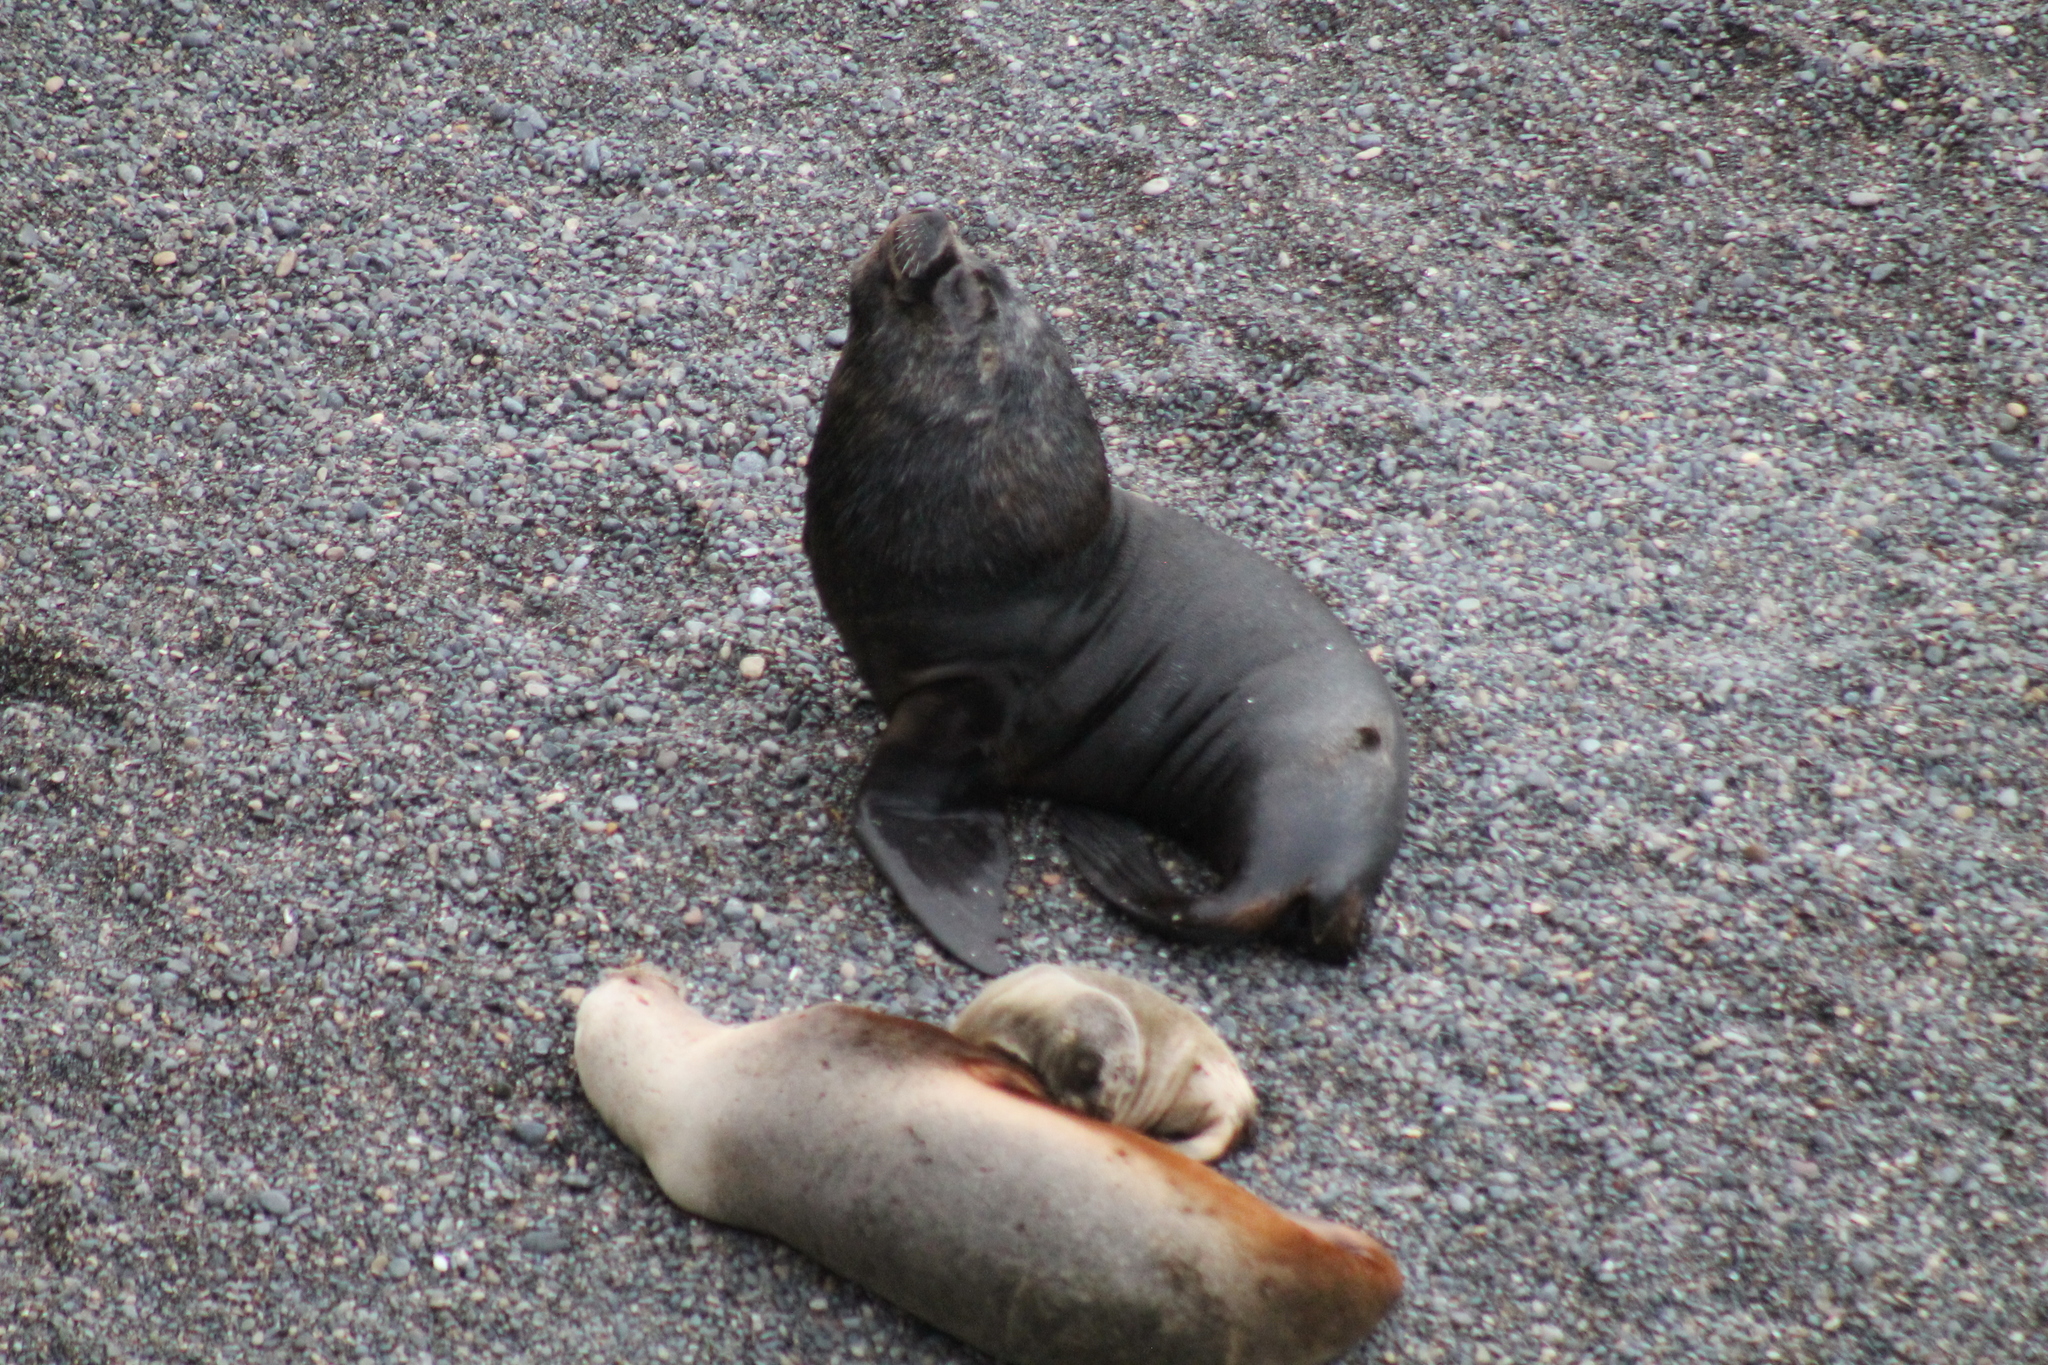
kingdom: Animalia
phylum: Chordata
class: Mammalia
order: Carnivora
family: Otariidae
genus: Otaria
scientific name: Otaria byronia
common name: South american sea lion
